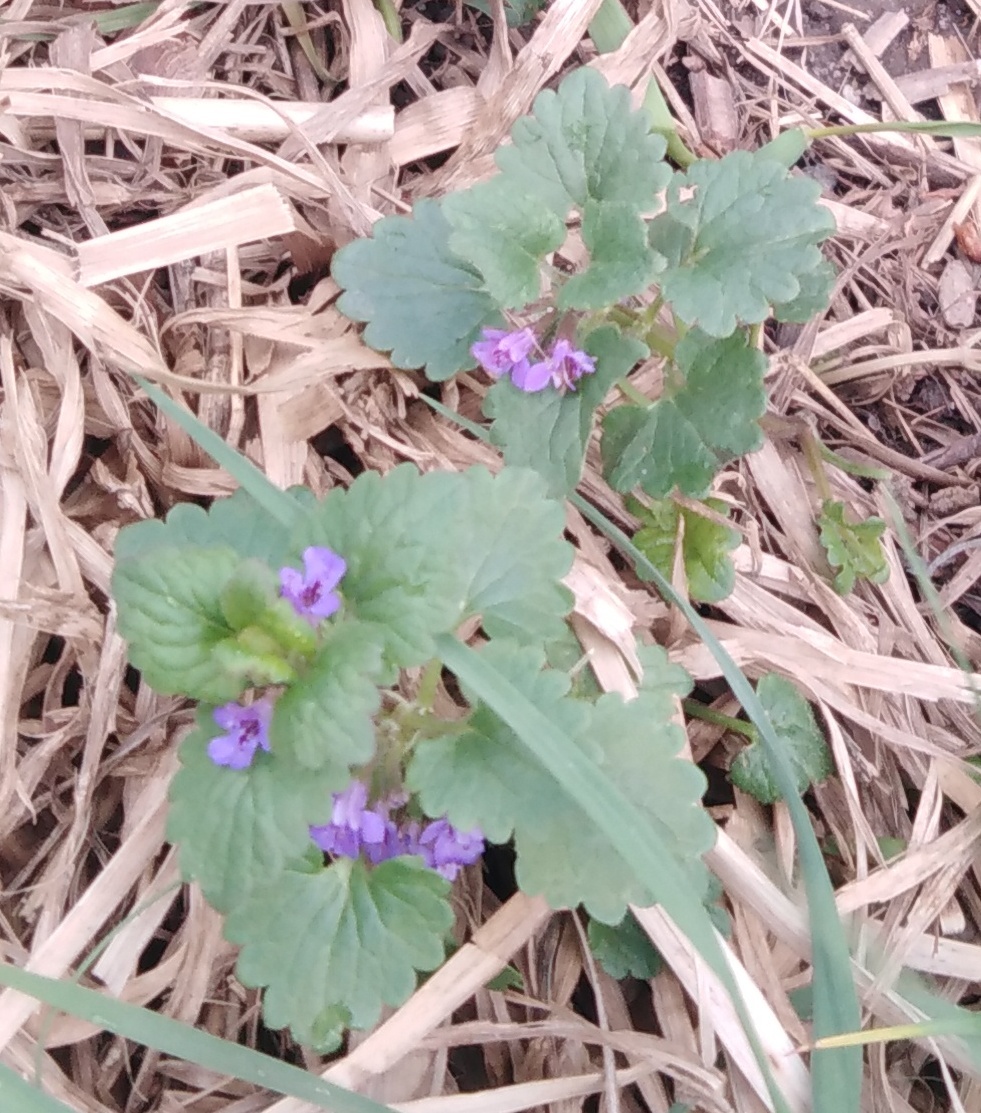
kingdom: Plantae
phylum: Tracheophyta
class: Magnoliopsida
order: Lamiales
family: Lamiaceae
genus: Glechoma
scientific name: Glechoma hederacea
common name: Ground ivy
